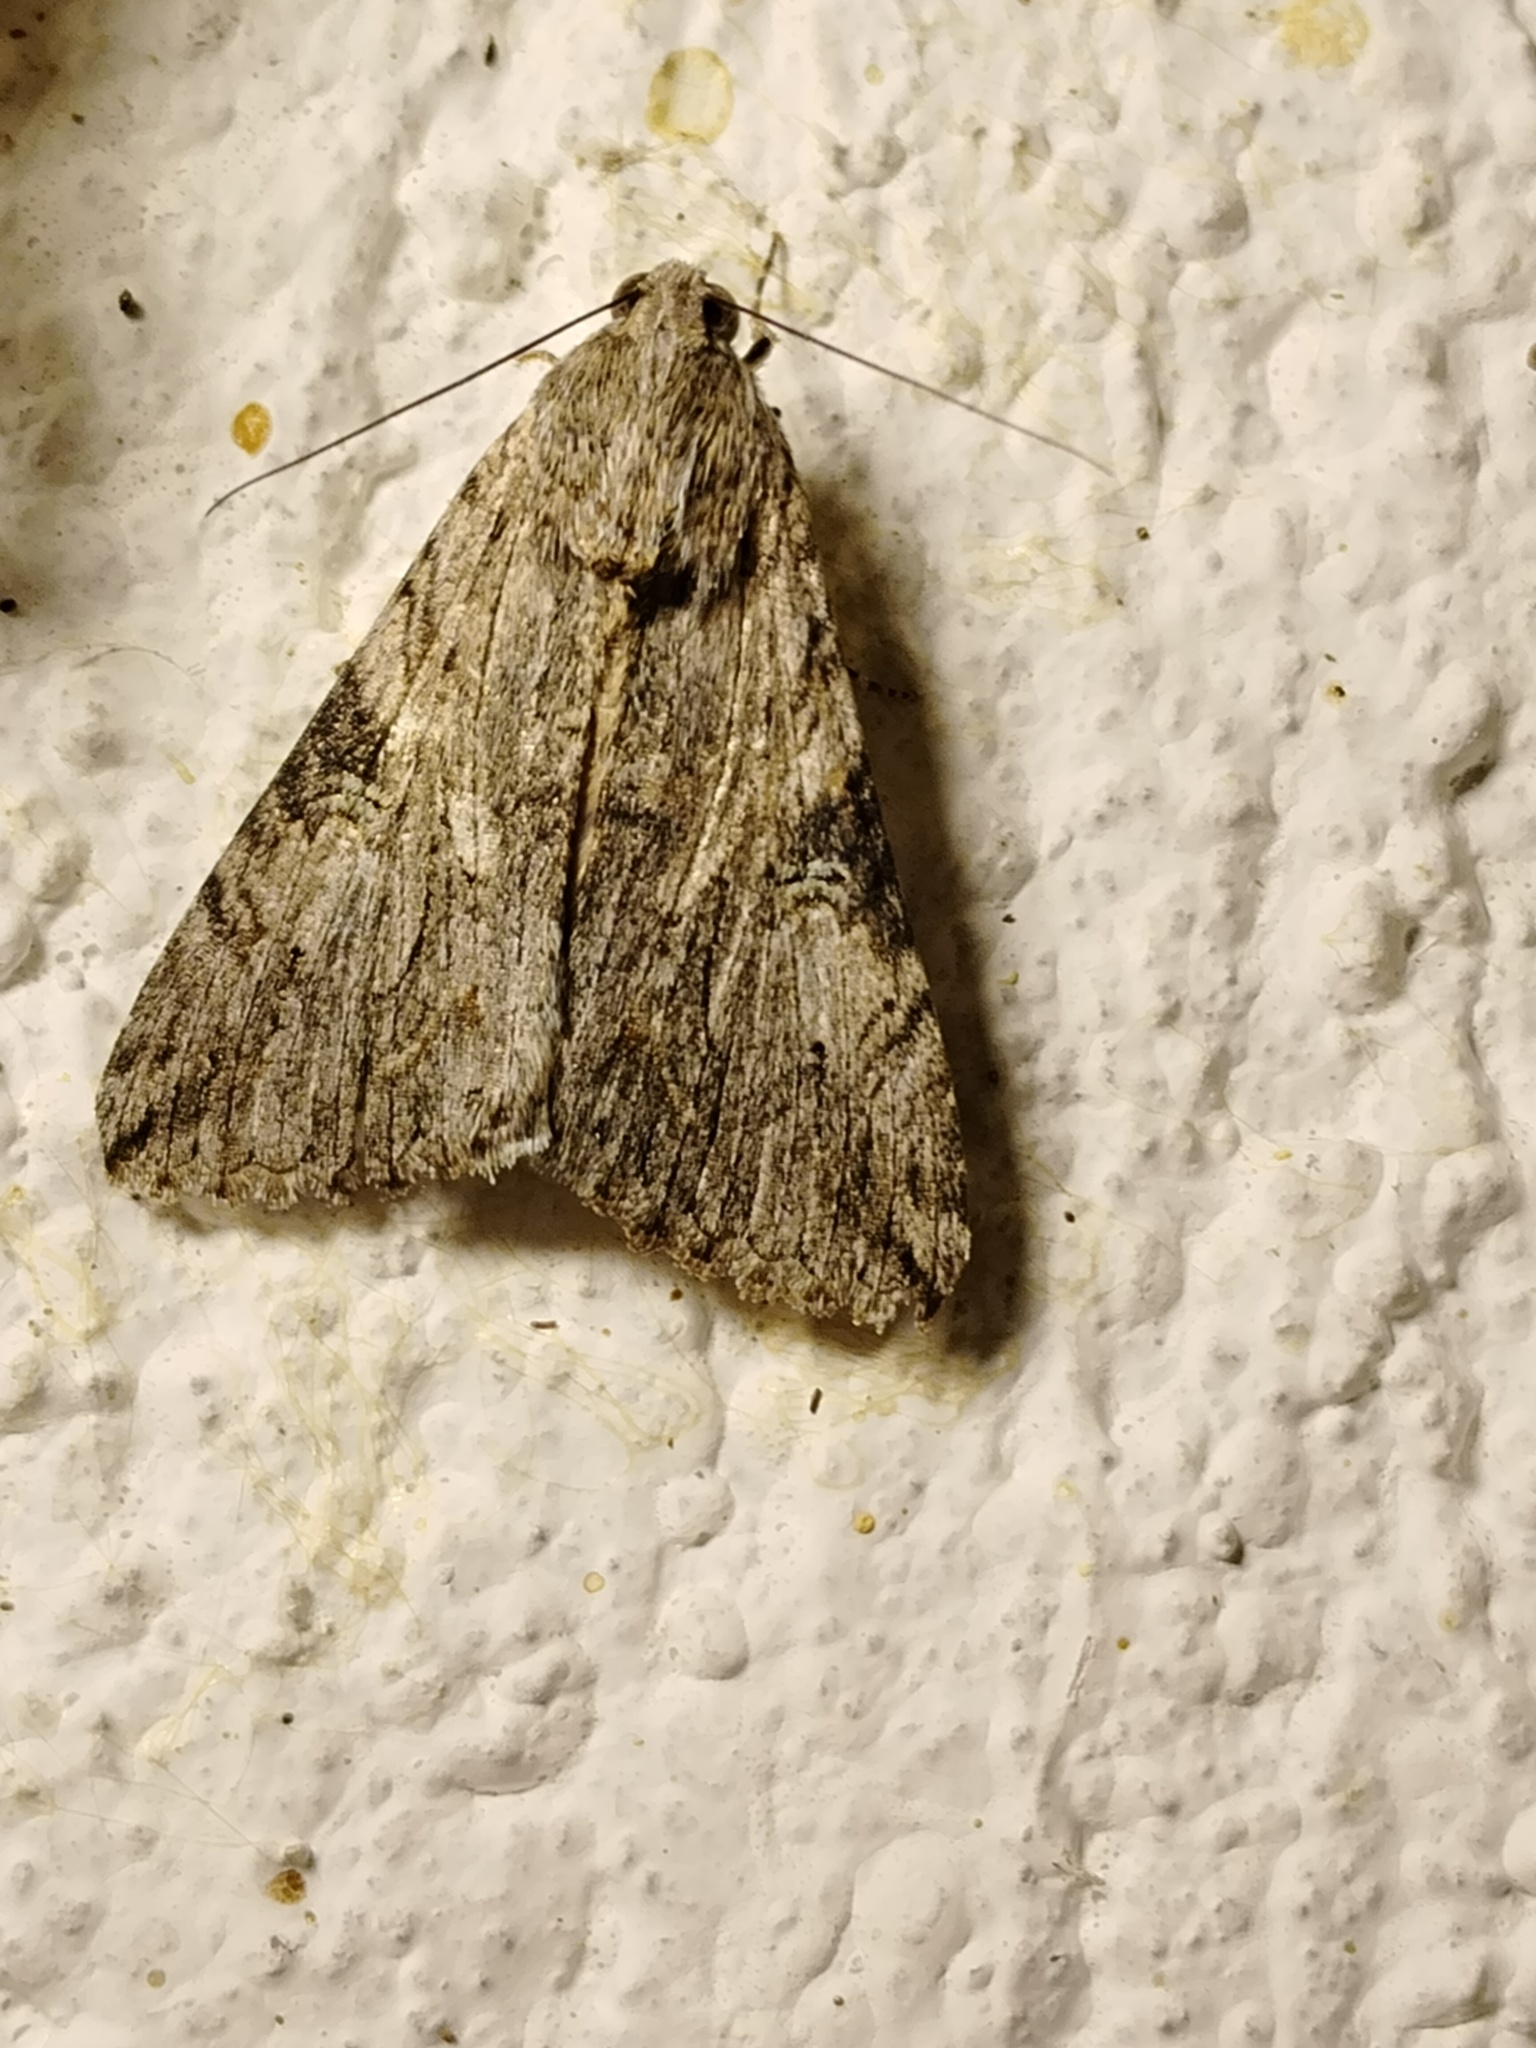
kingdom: Animalia
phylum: Arthropoda
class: Insecta
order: Lepidoptera
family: Erebidae
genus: Melipotis
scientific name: Melipotis jucunda
